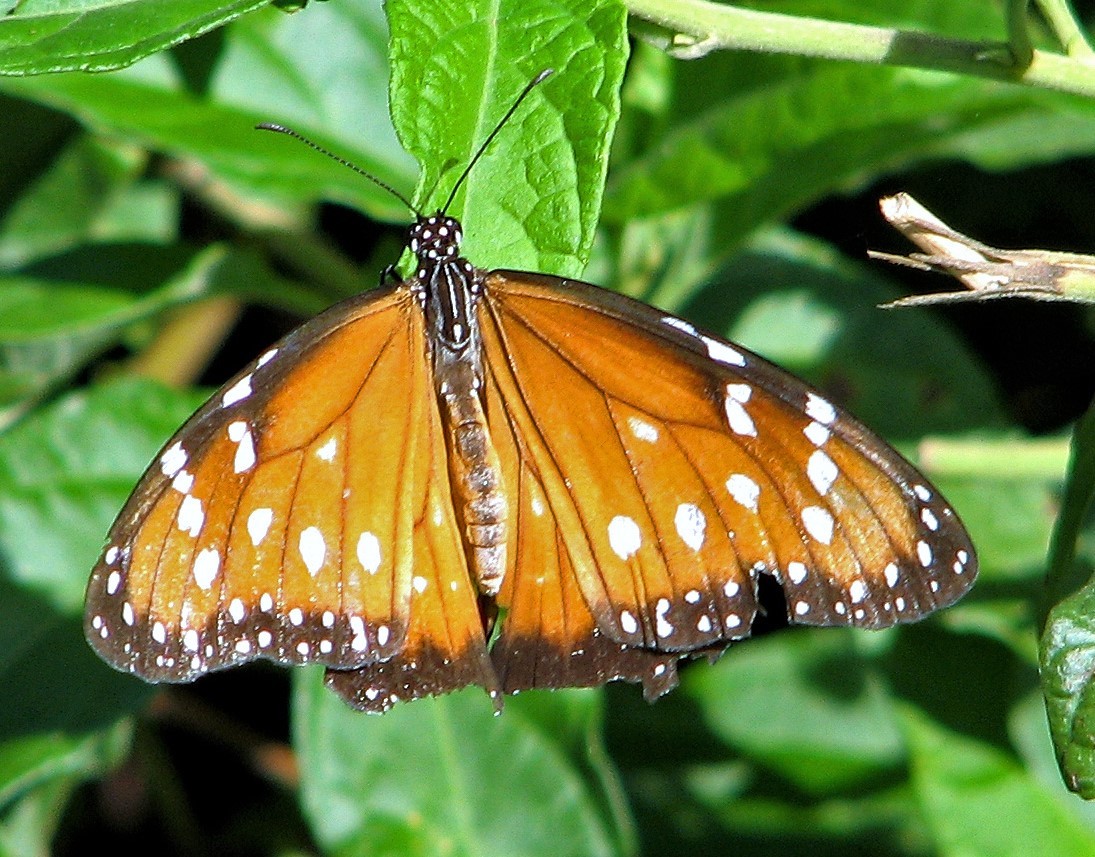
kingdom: Animalia
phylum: Arthropoda
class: Insecta
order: Lepidoptera
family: Nymphalidae
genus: Danaus
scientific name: Danaus eresimus
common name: Soldier
